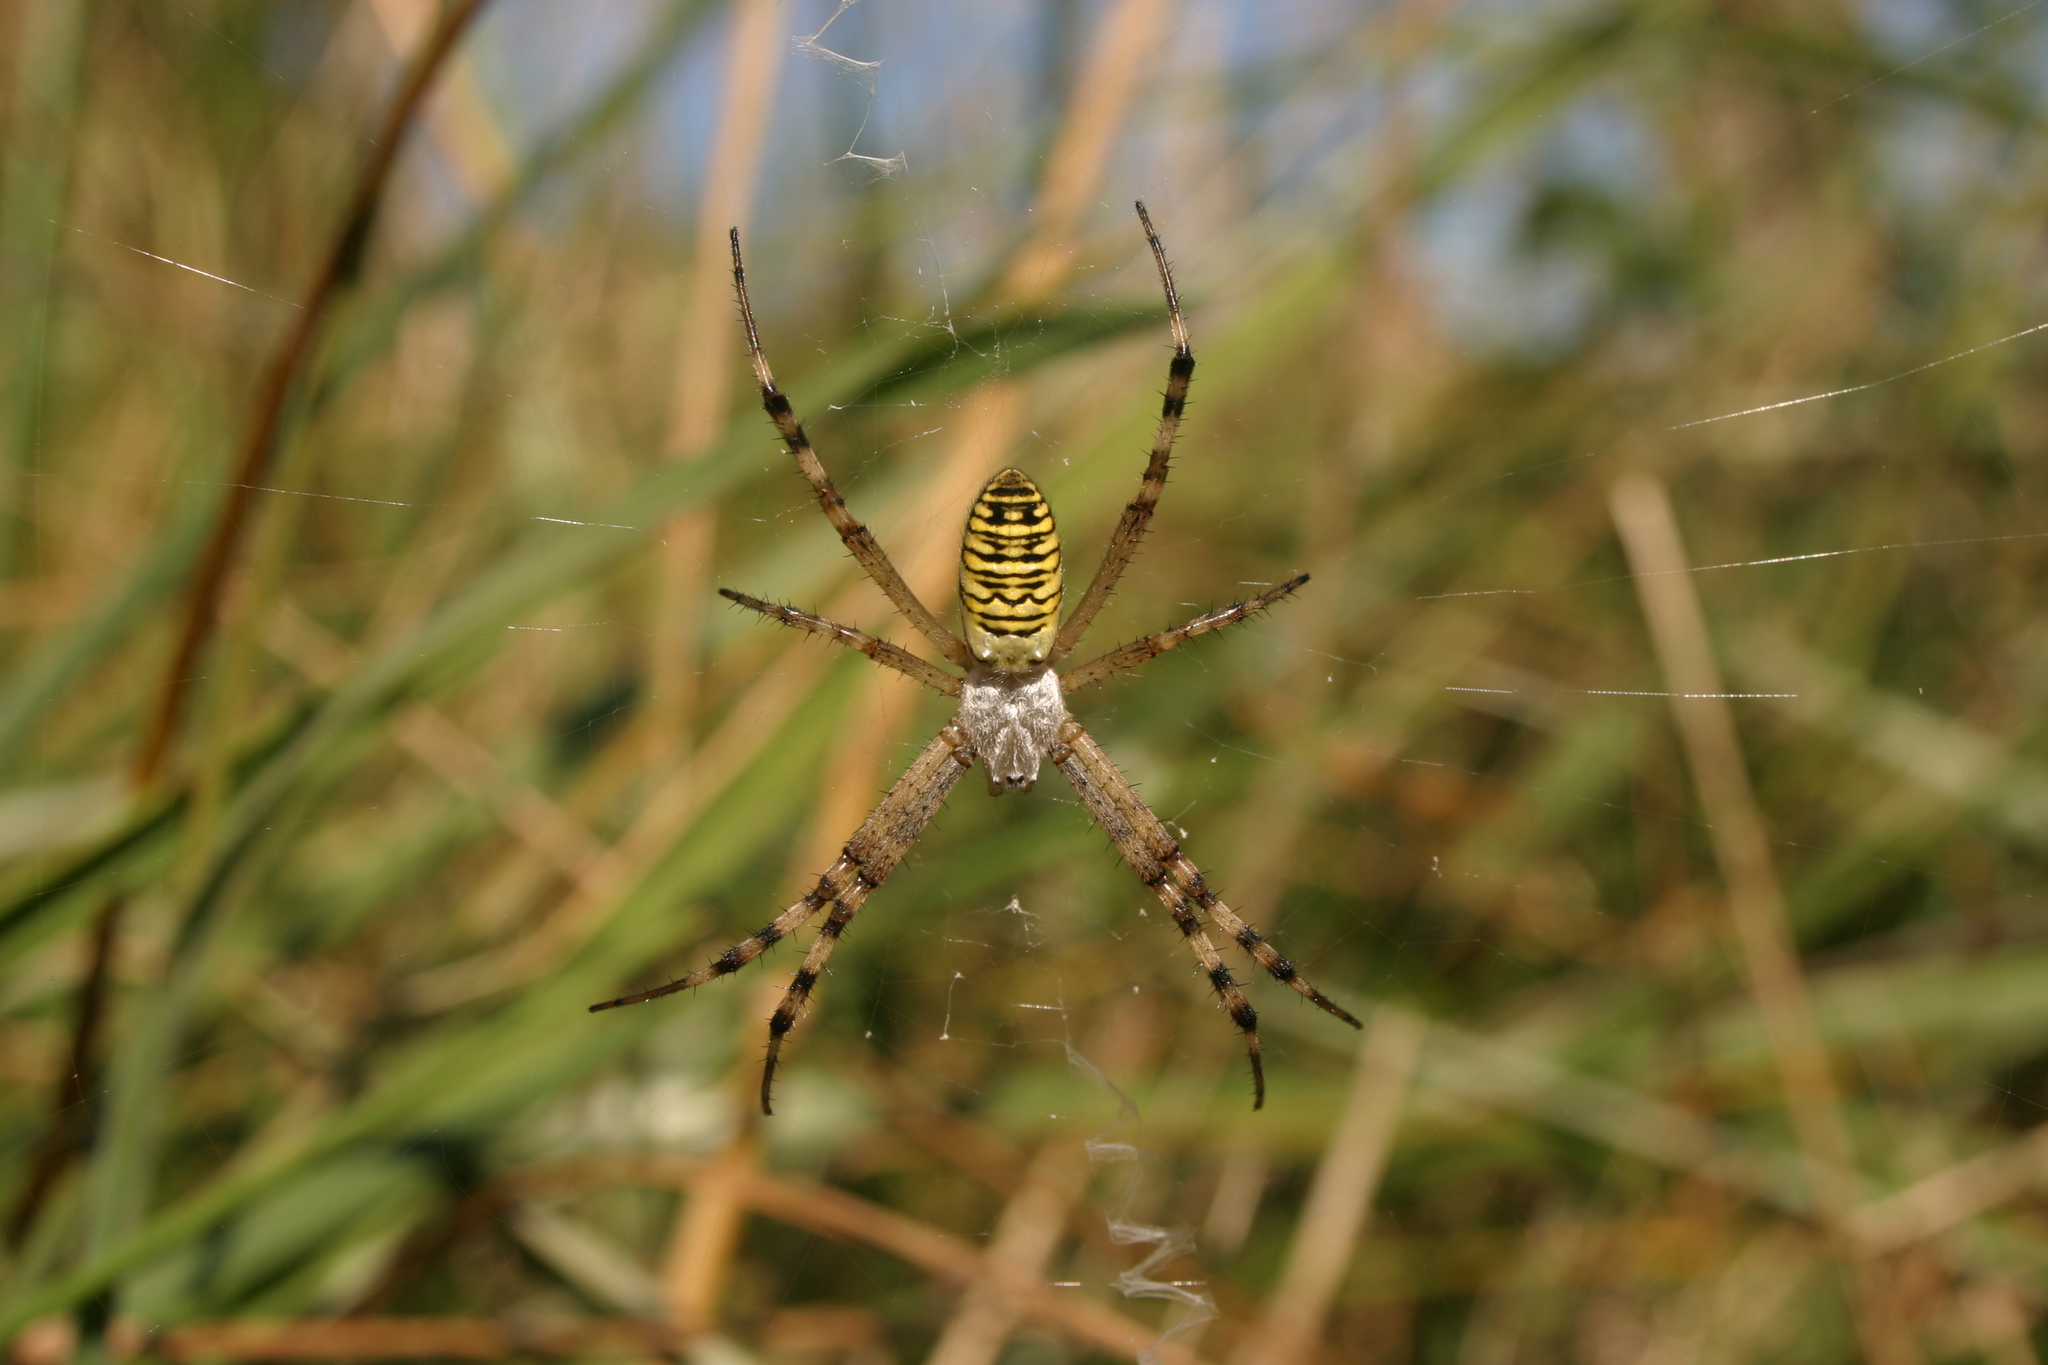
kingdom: Animalia
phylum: Arthropoda
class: Arachnida
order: Araneae
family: Araneidae
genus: Argiope
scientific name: Argiope bruennichi
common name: Wasp spider
